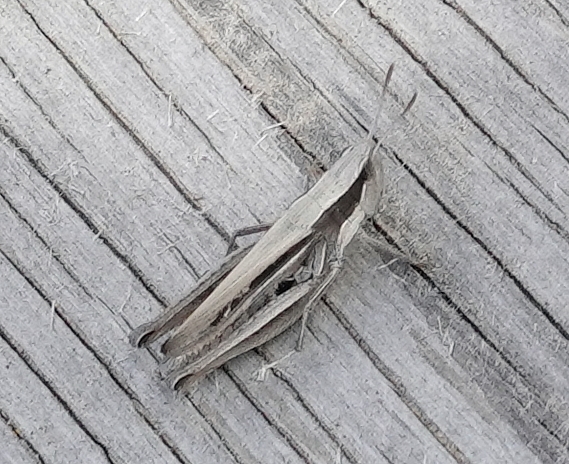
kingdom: Animalia
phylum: Arthropoda
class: Insecta
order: Orthoptera
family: Acrididae
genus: Eritettix
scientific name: Eritettix simplex
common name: Velvet-striped grasshopper
